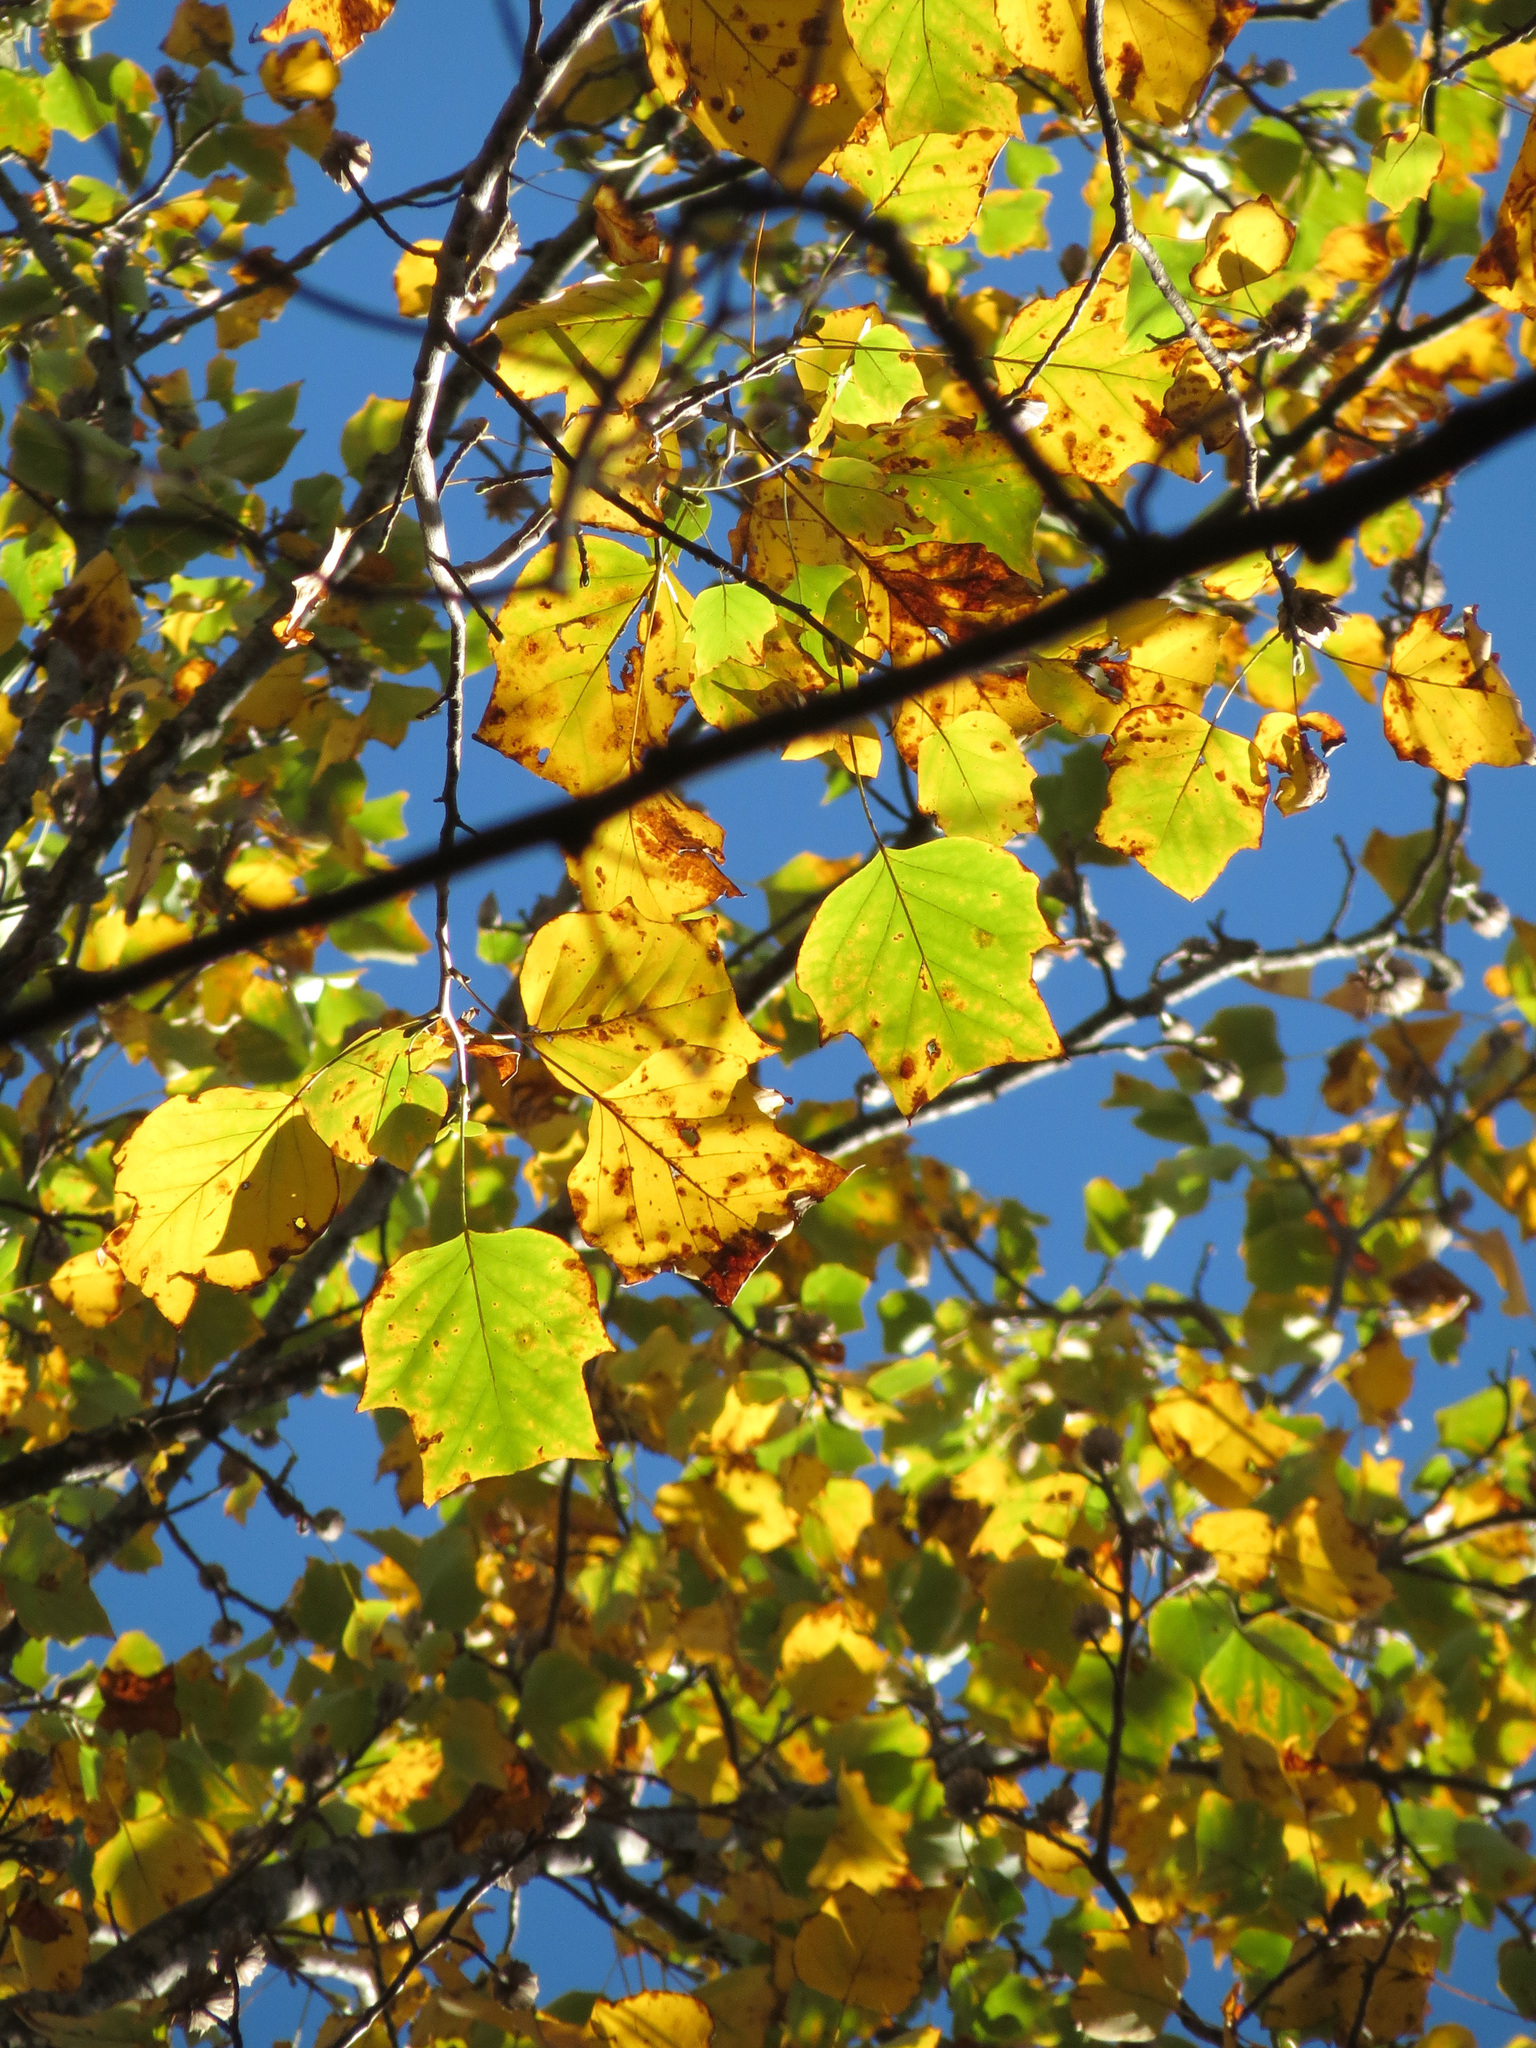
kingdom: Plantae
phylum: Tracheophyta
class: Magnoliopsida
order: Magnoliales
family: Magnoliaceae
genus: Liriodendron
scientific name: Liriodendron tulipifera
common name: Tulip tree
